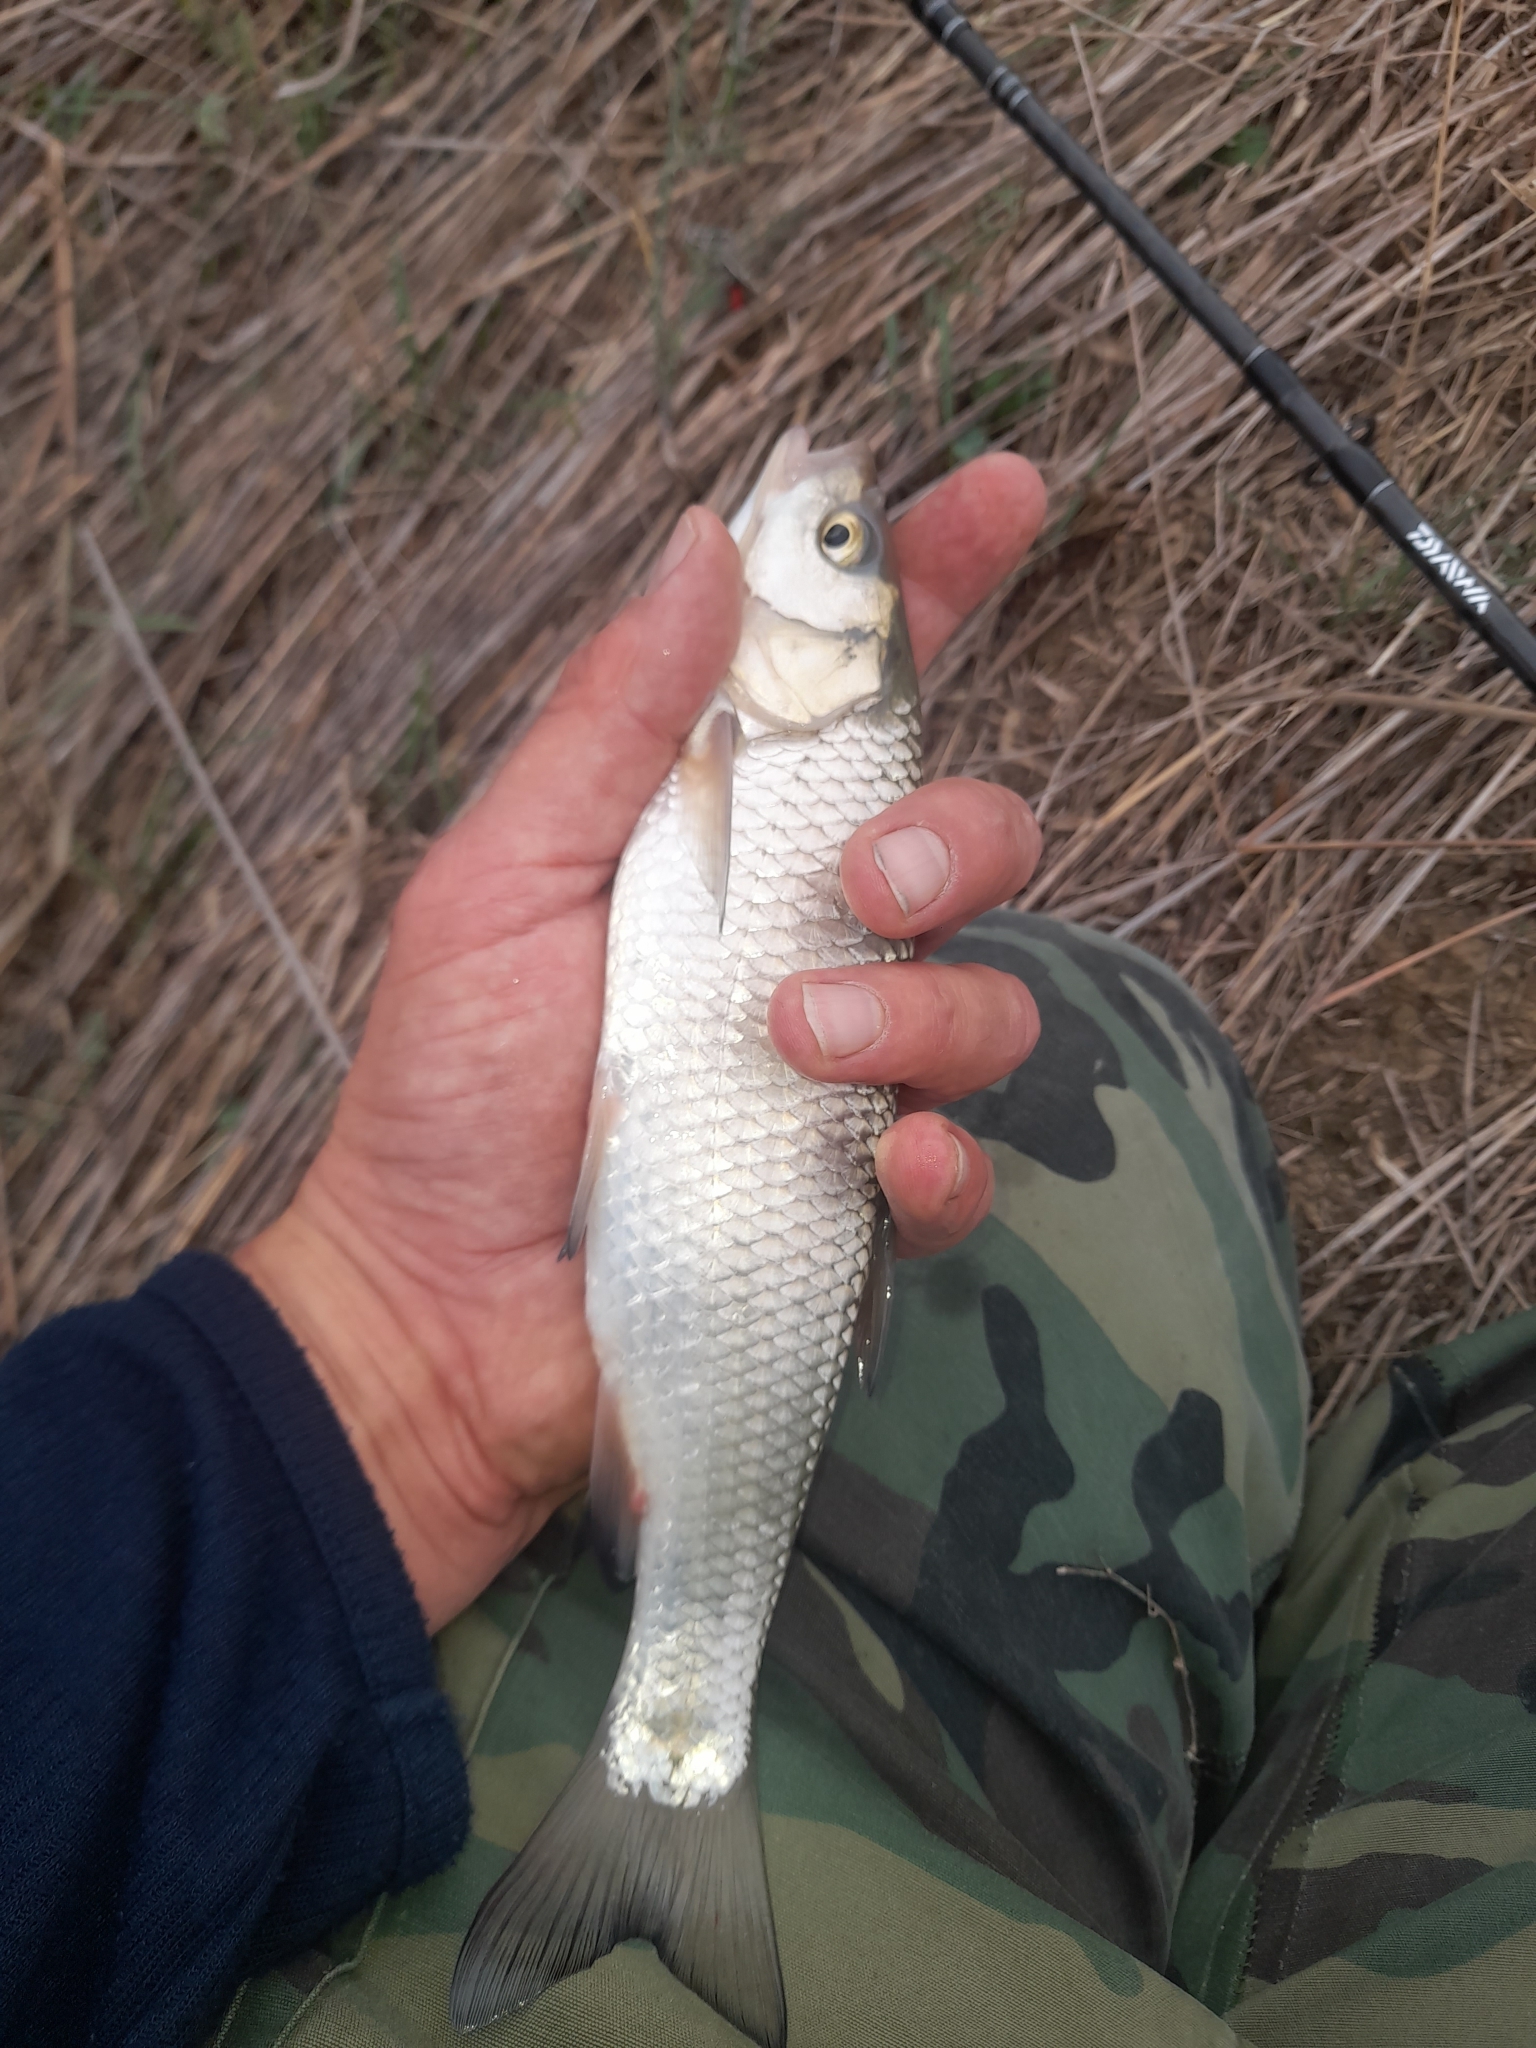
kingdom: Animalia
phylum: Chordata
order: Cypriniformes
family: Cyprinidae
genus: Squalius
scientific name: Squalius squalus
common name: Italian chub
